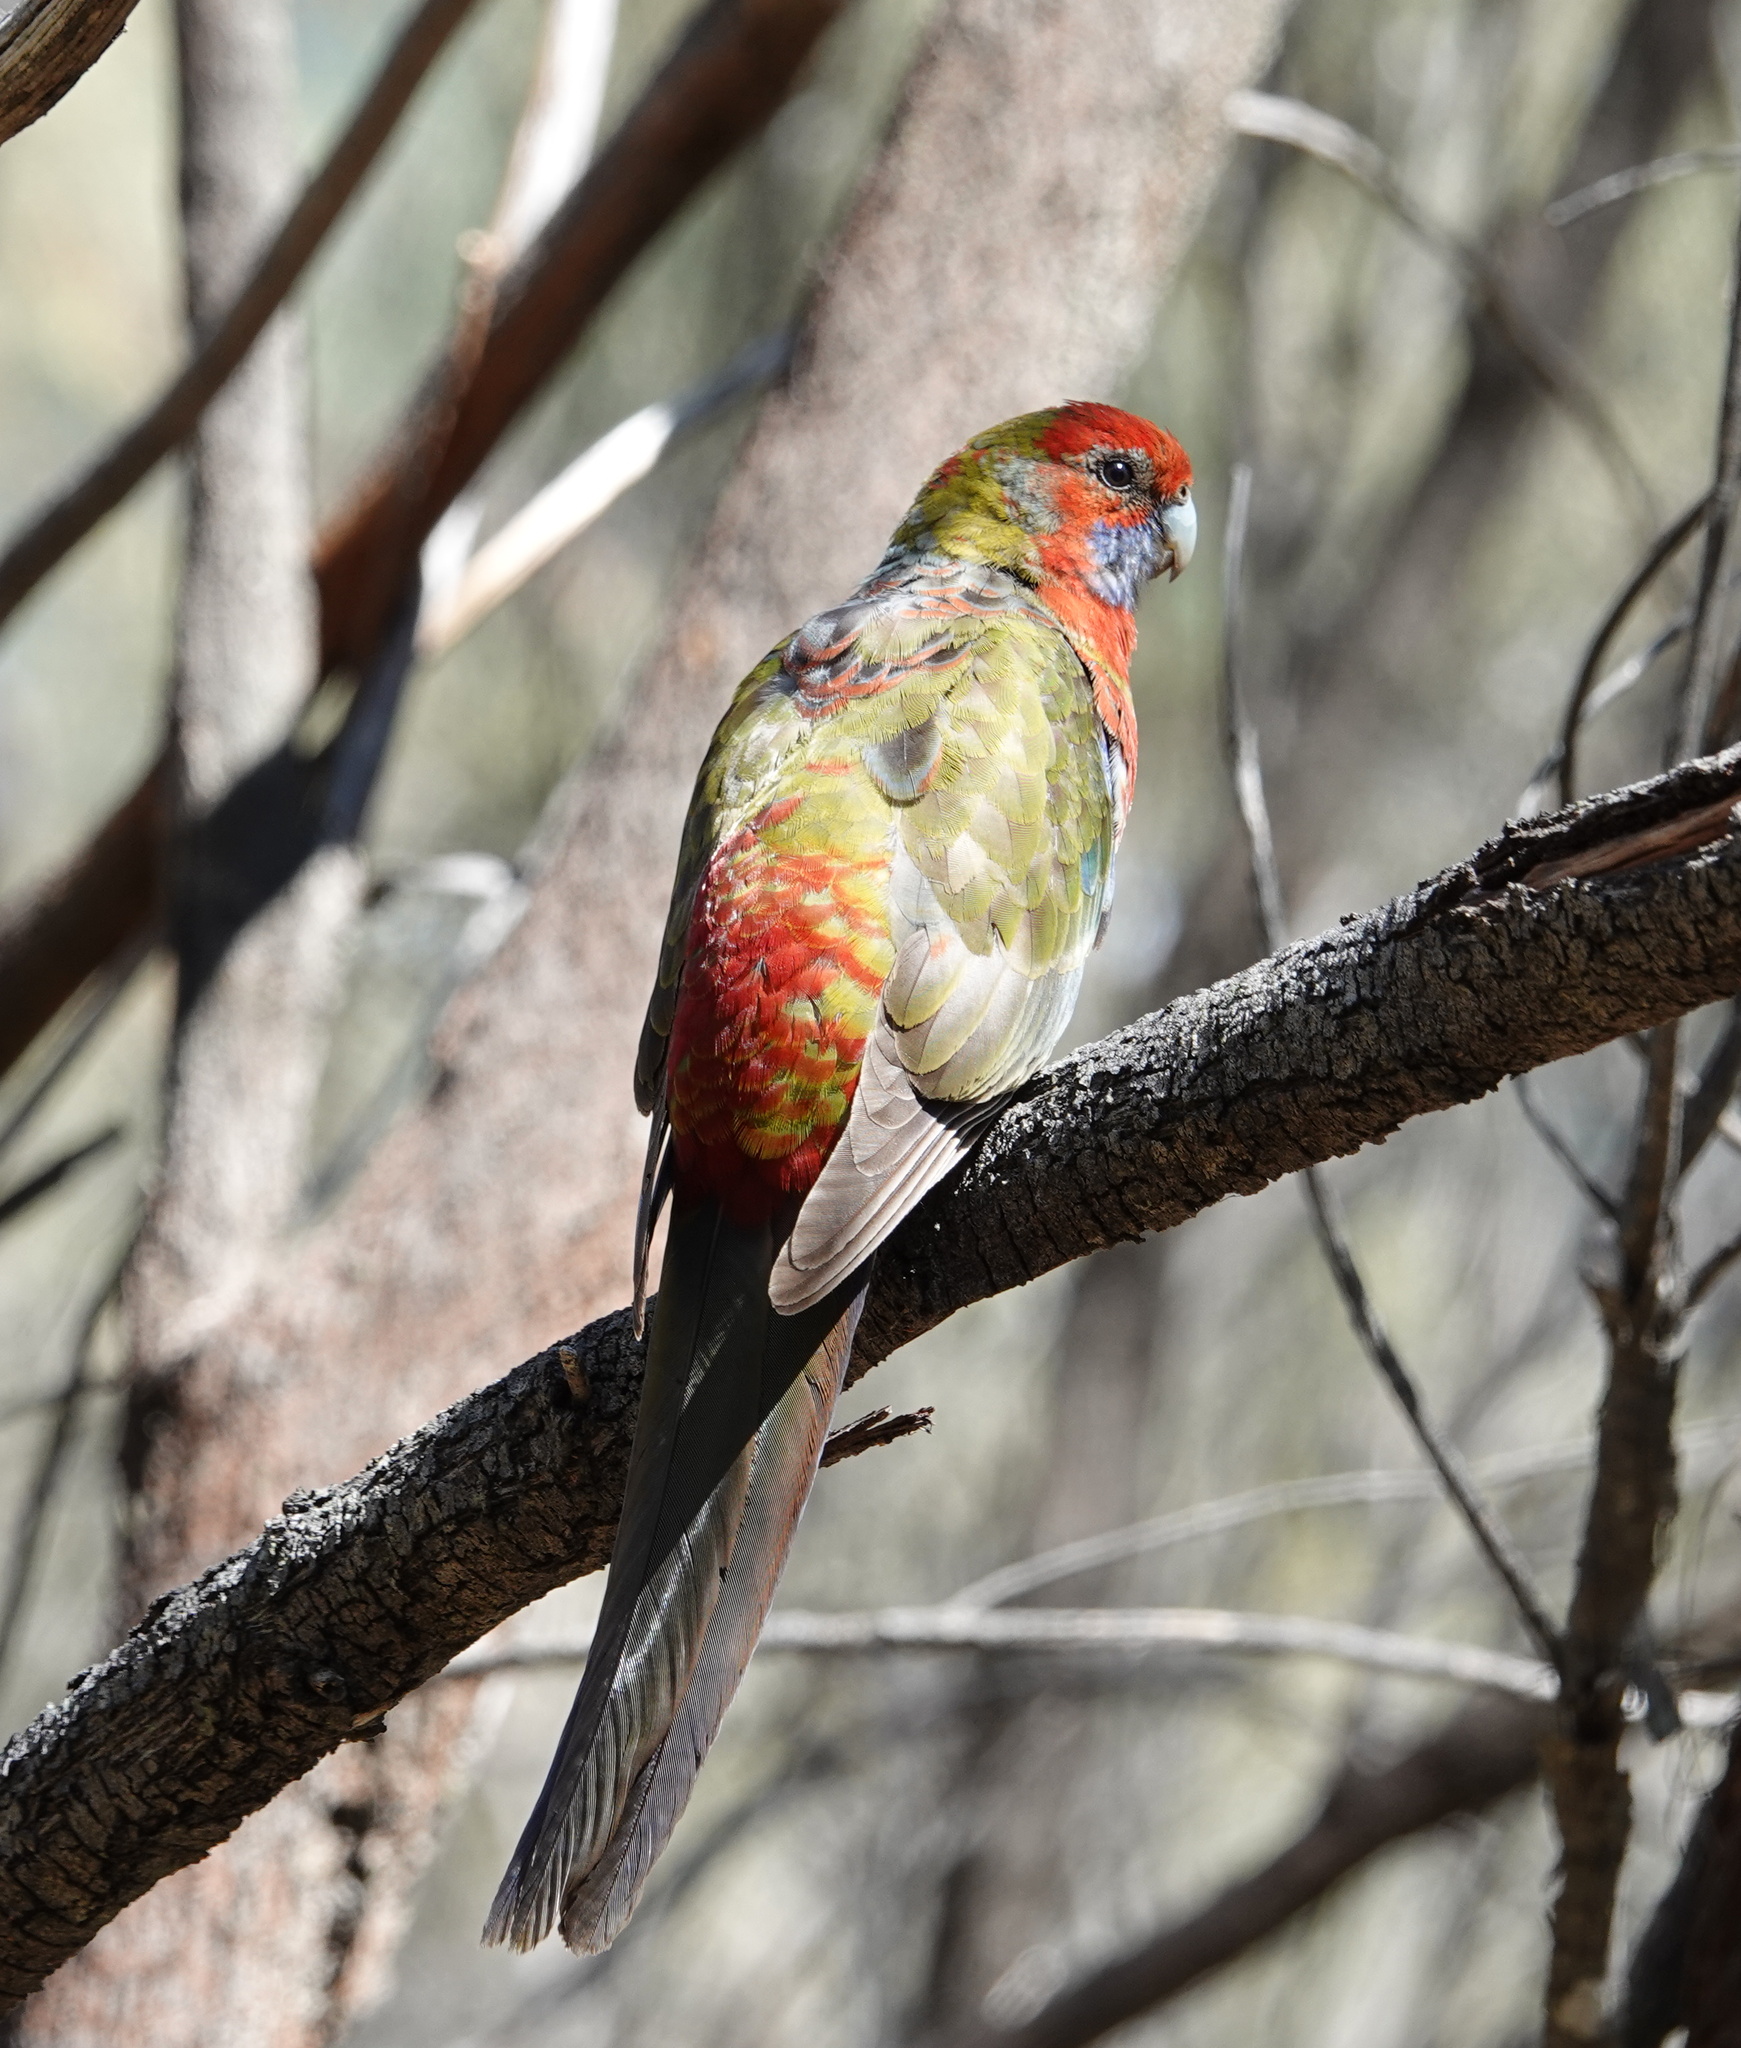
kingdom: Animalia
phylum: Chordata
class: Aves
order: Psittaciformes
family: Psittacidae
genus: Platycercus
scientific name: Platycercus elegans
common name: Crimson rosella
